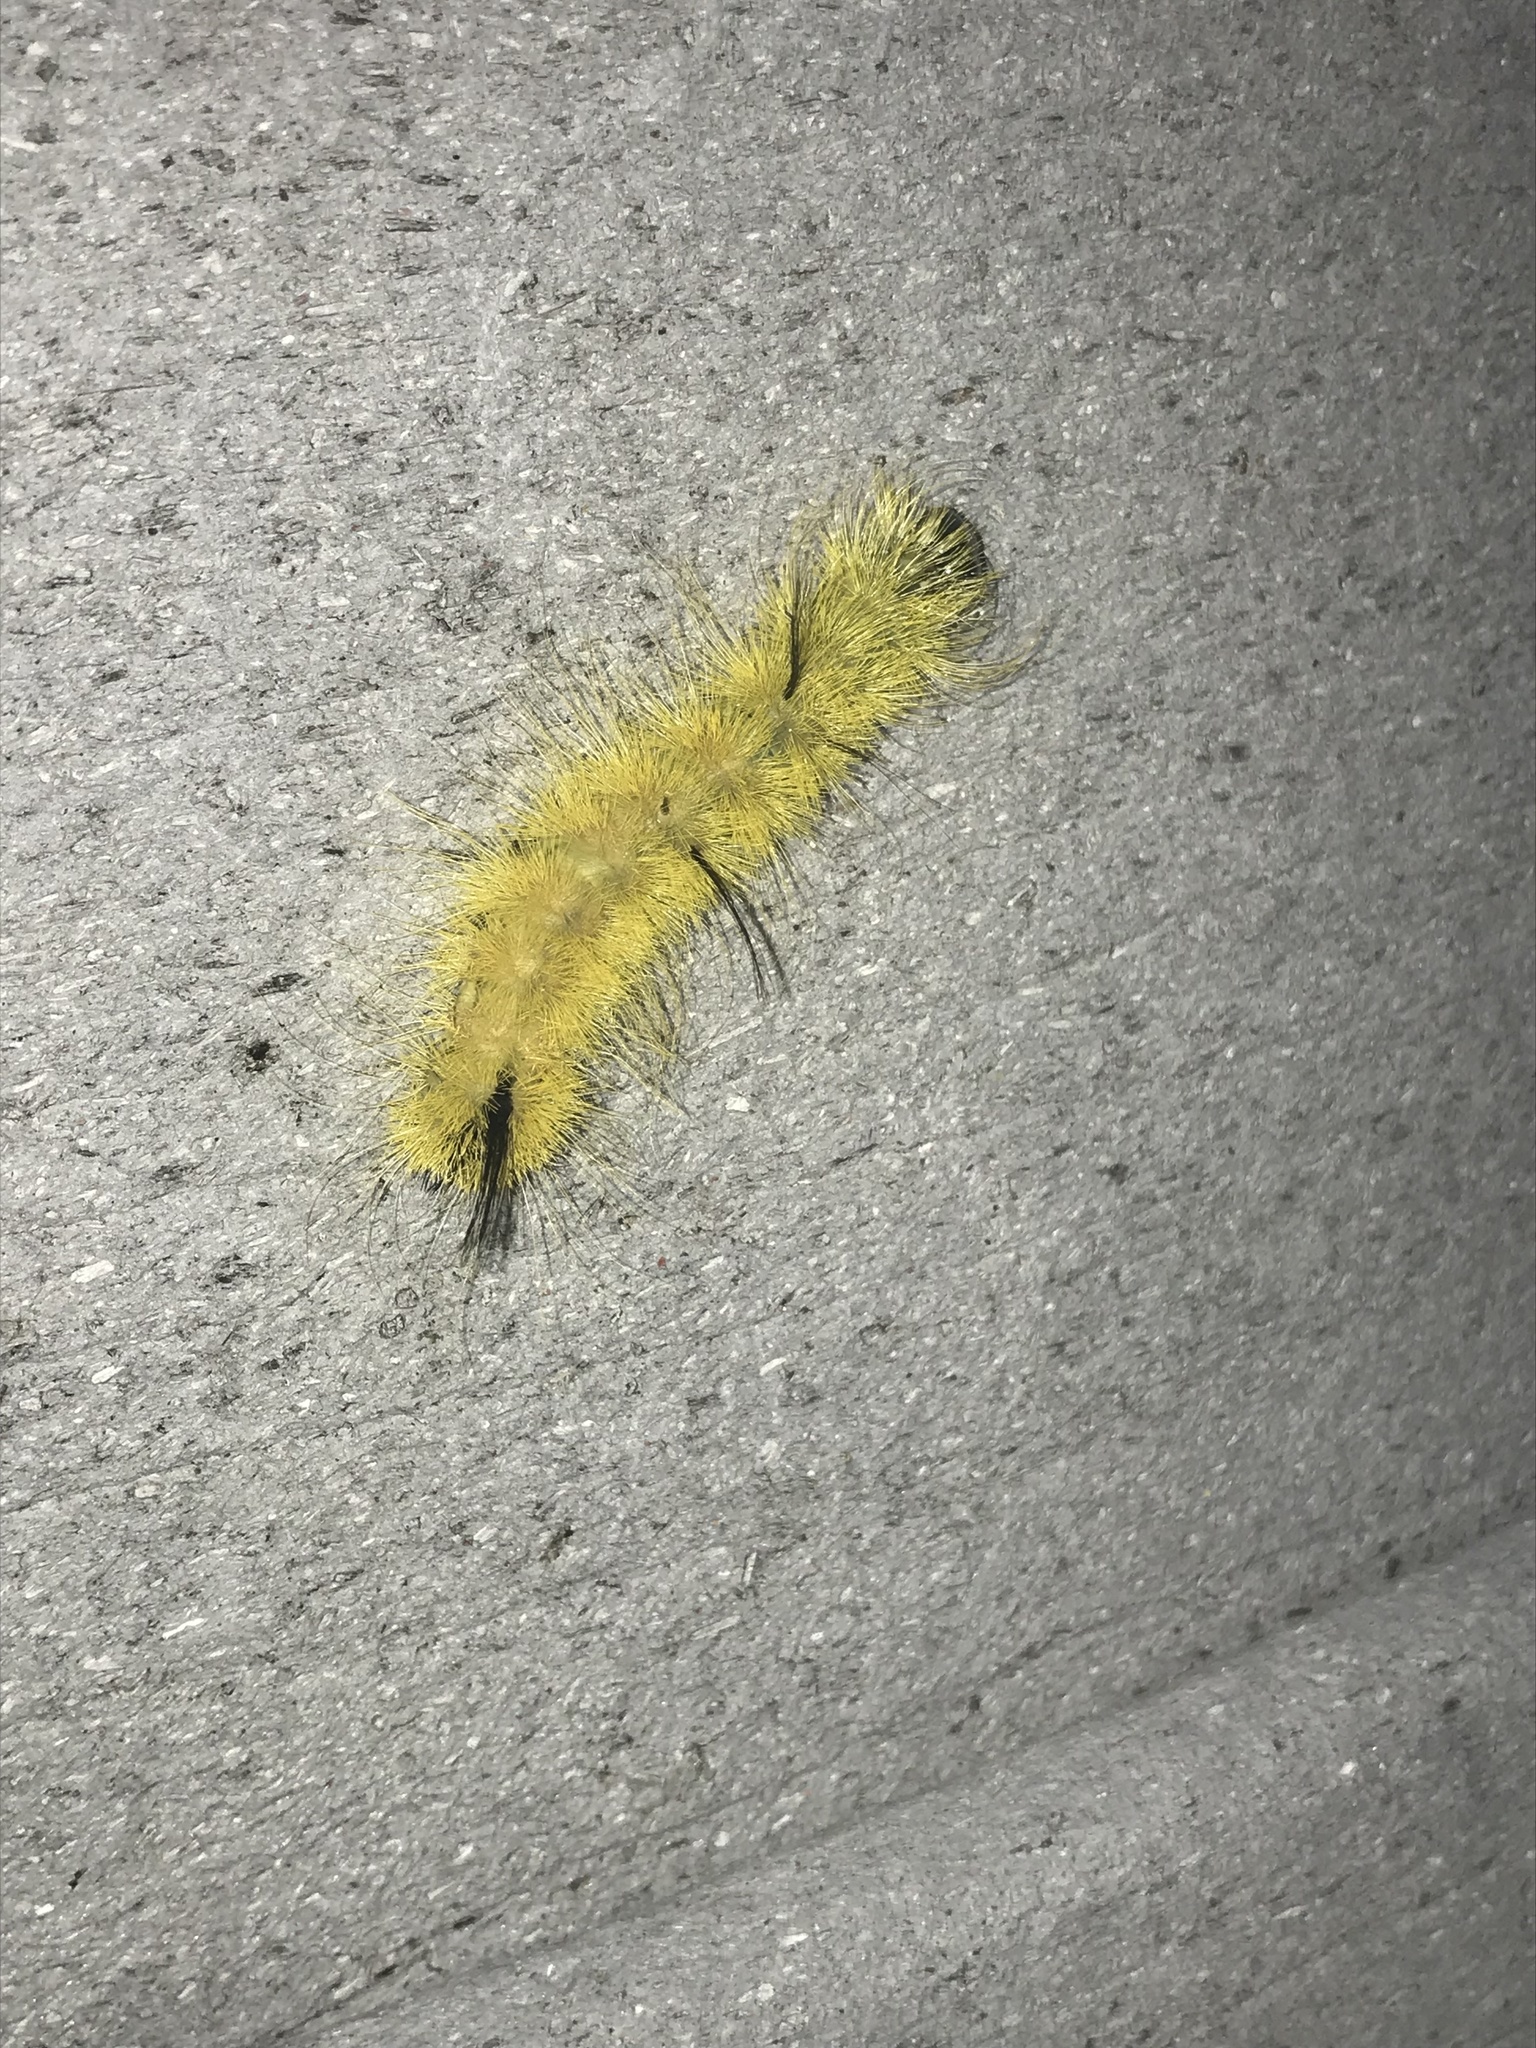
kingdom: Animalia
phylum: Arthropoda
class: Insecta
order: Lepidoptera
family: Noctuidae
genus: Acronicta
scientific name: Acronicta americana
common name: American dagger
